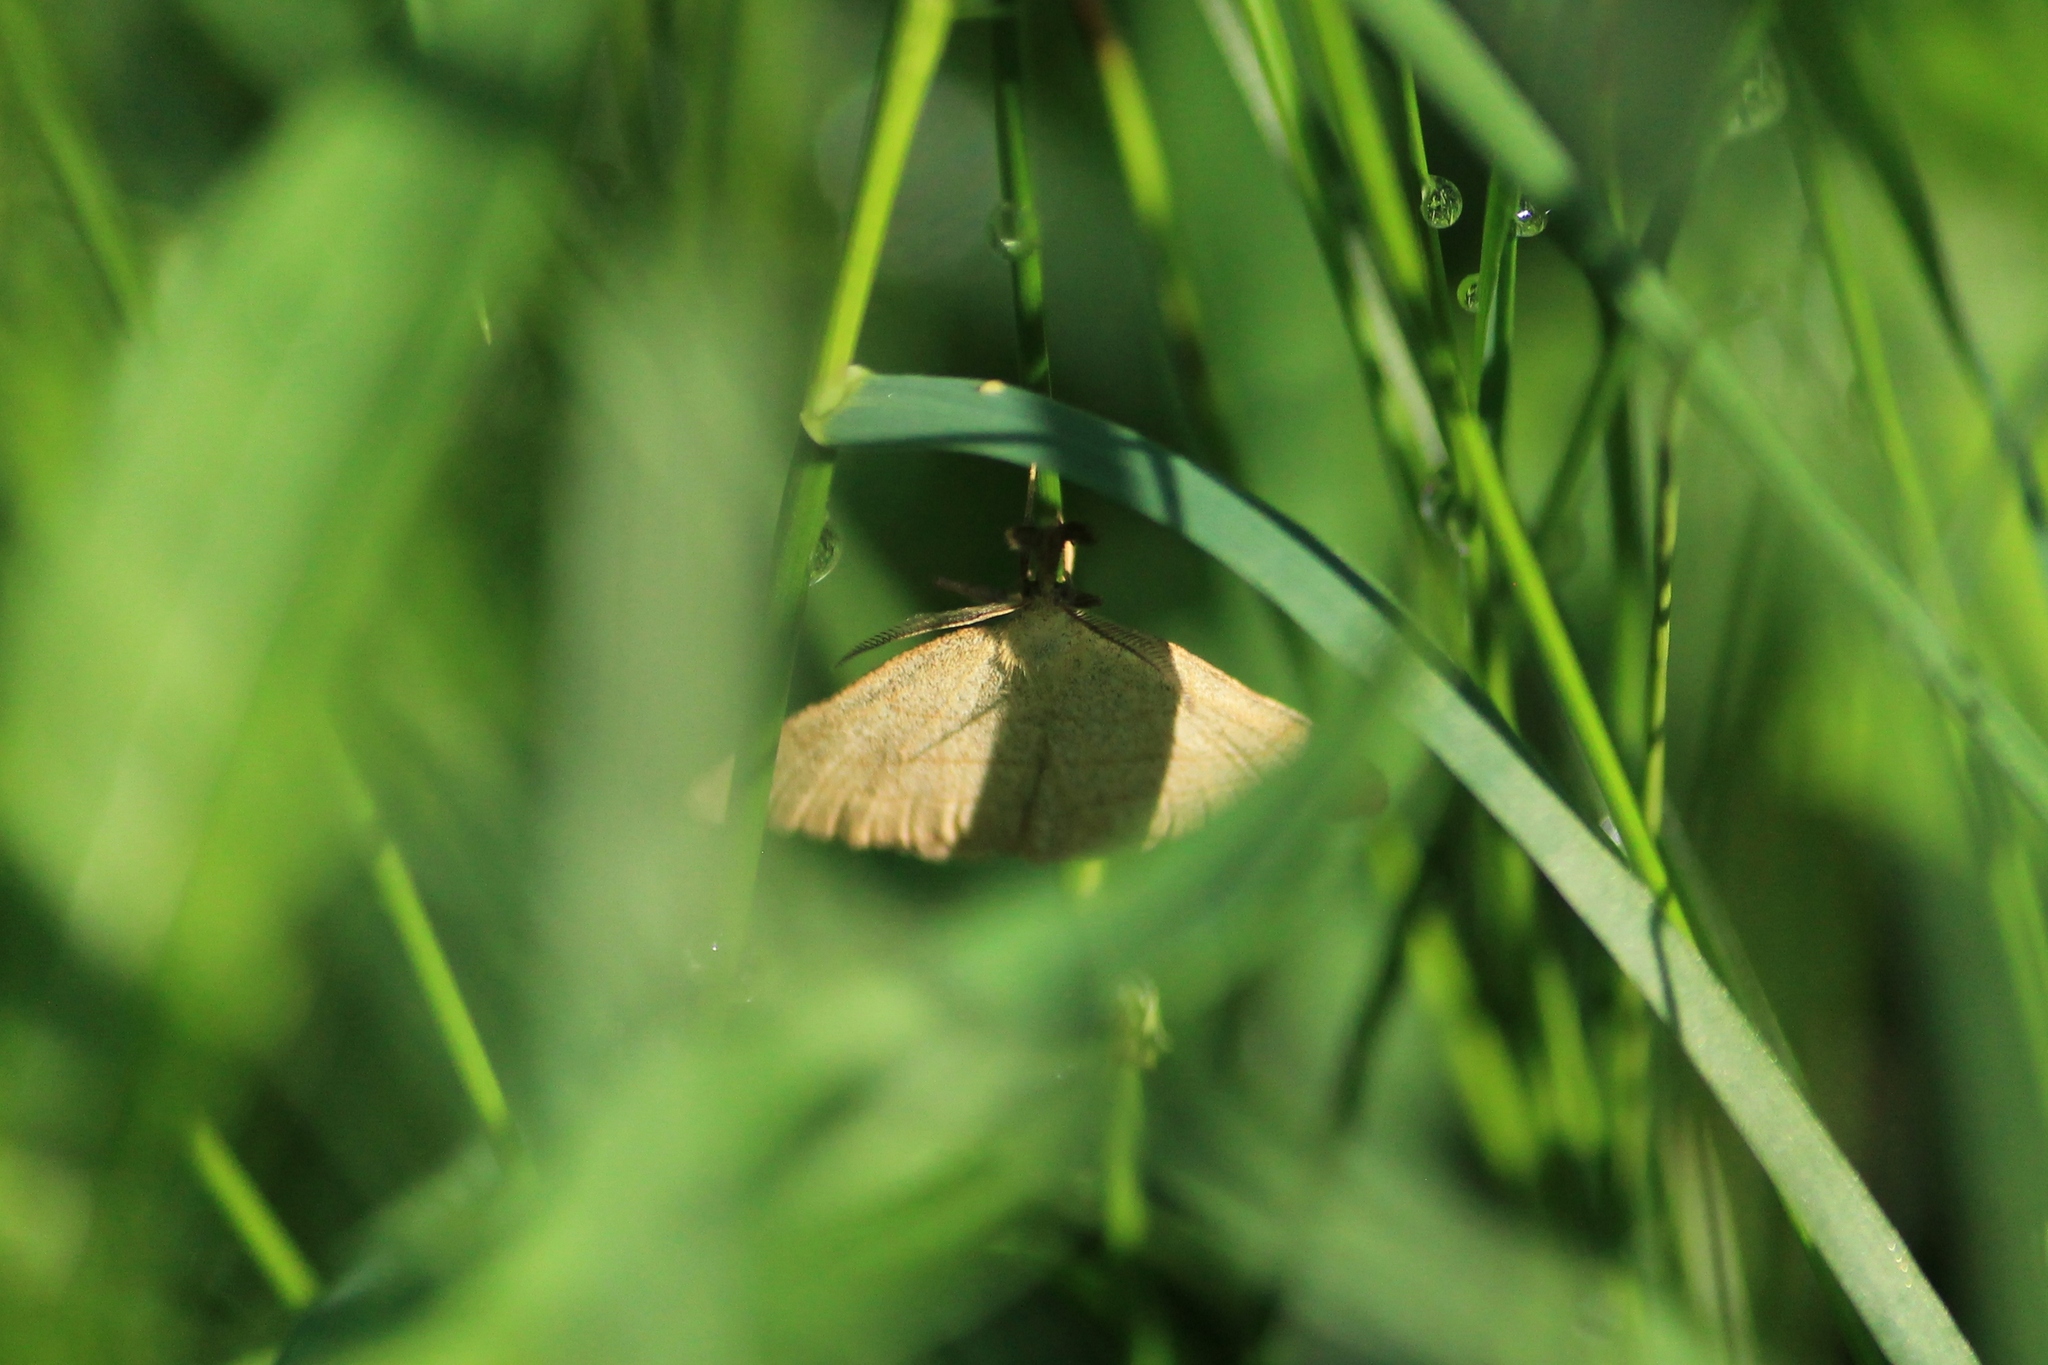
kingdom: Animalia
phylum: Arthropoda
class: Insecta
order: Lepidoptera
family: Erebidae
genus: Polypogon
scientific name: Polypogon tentacularia
